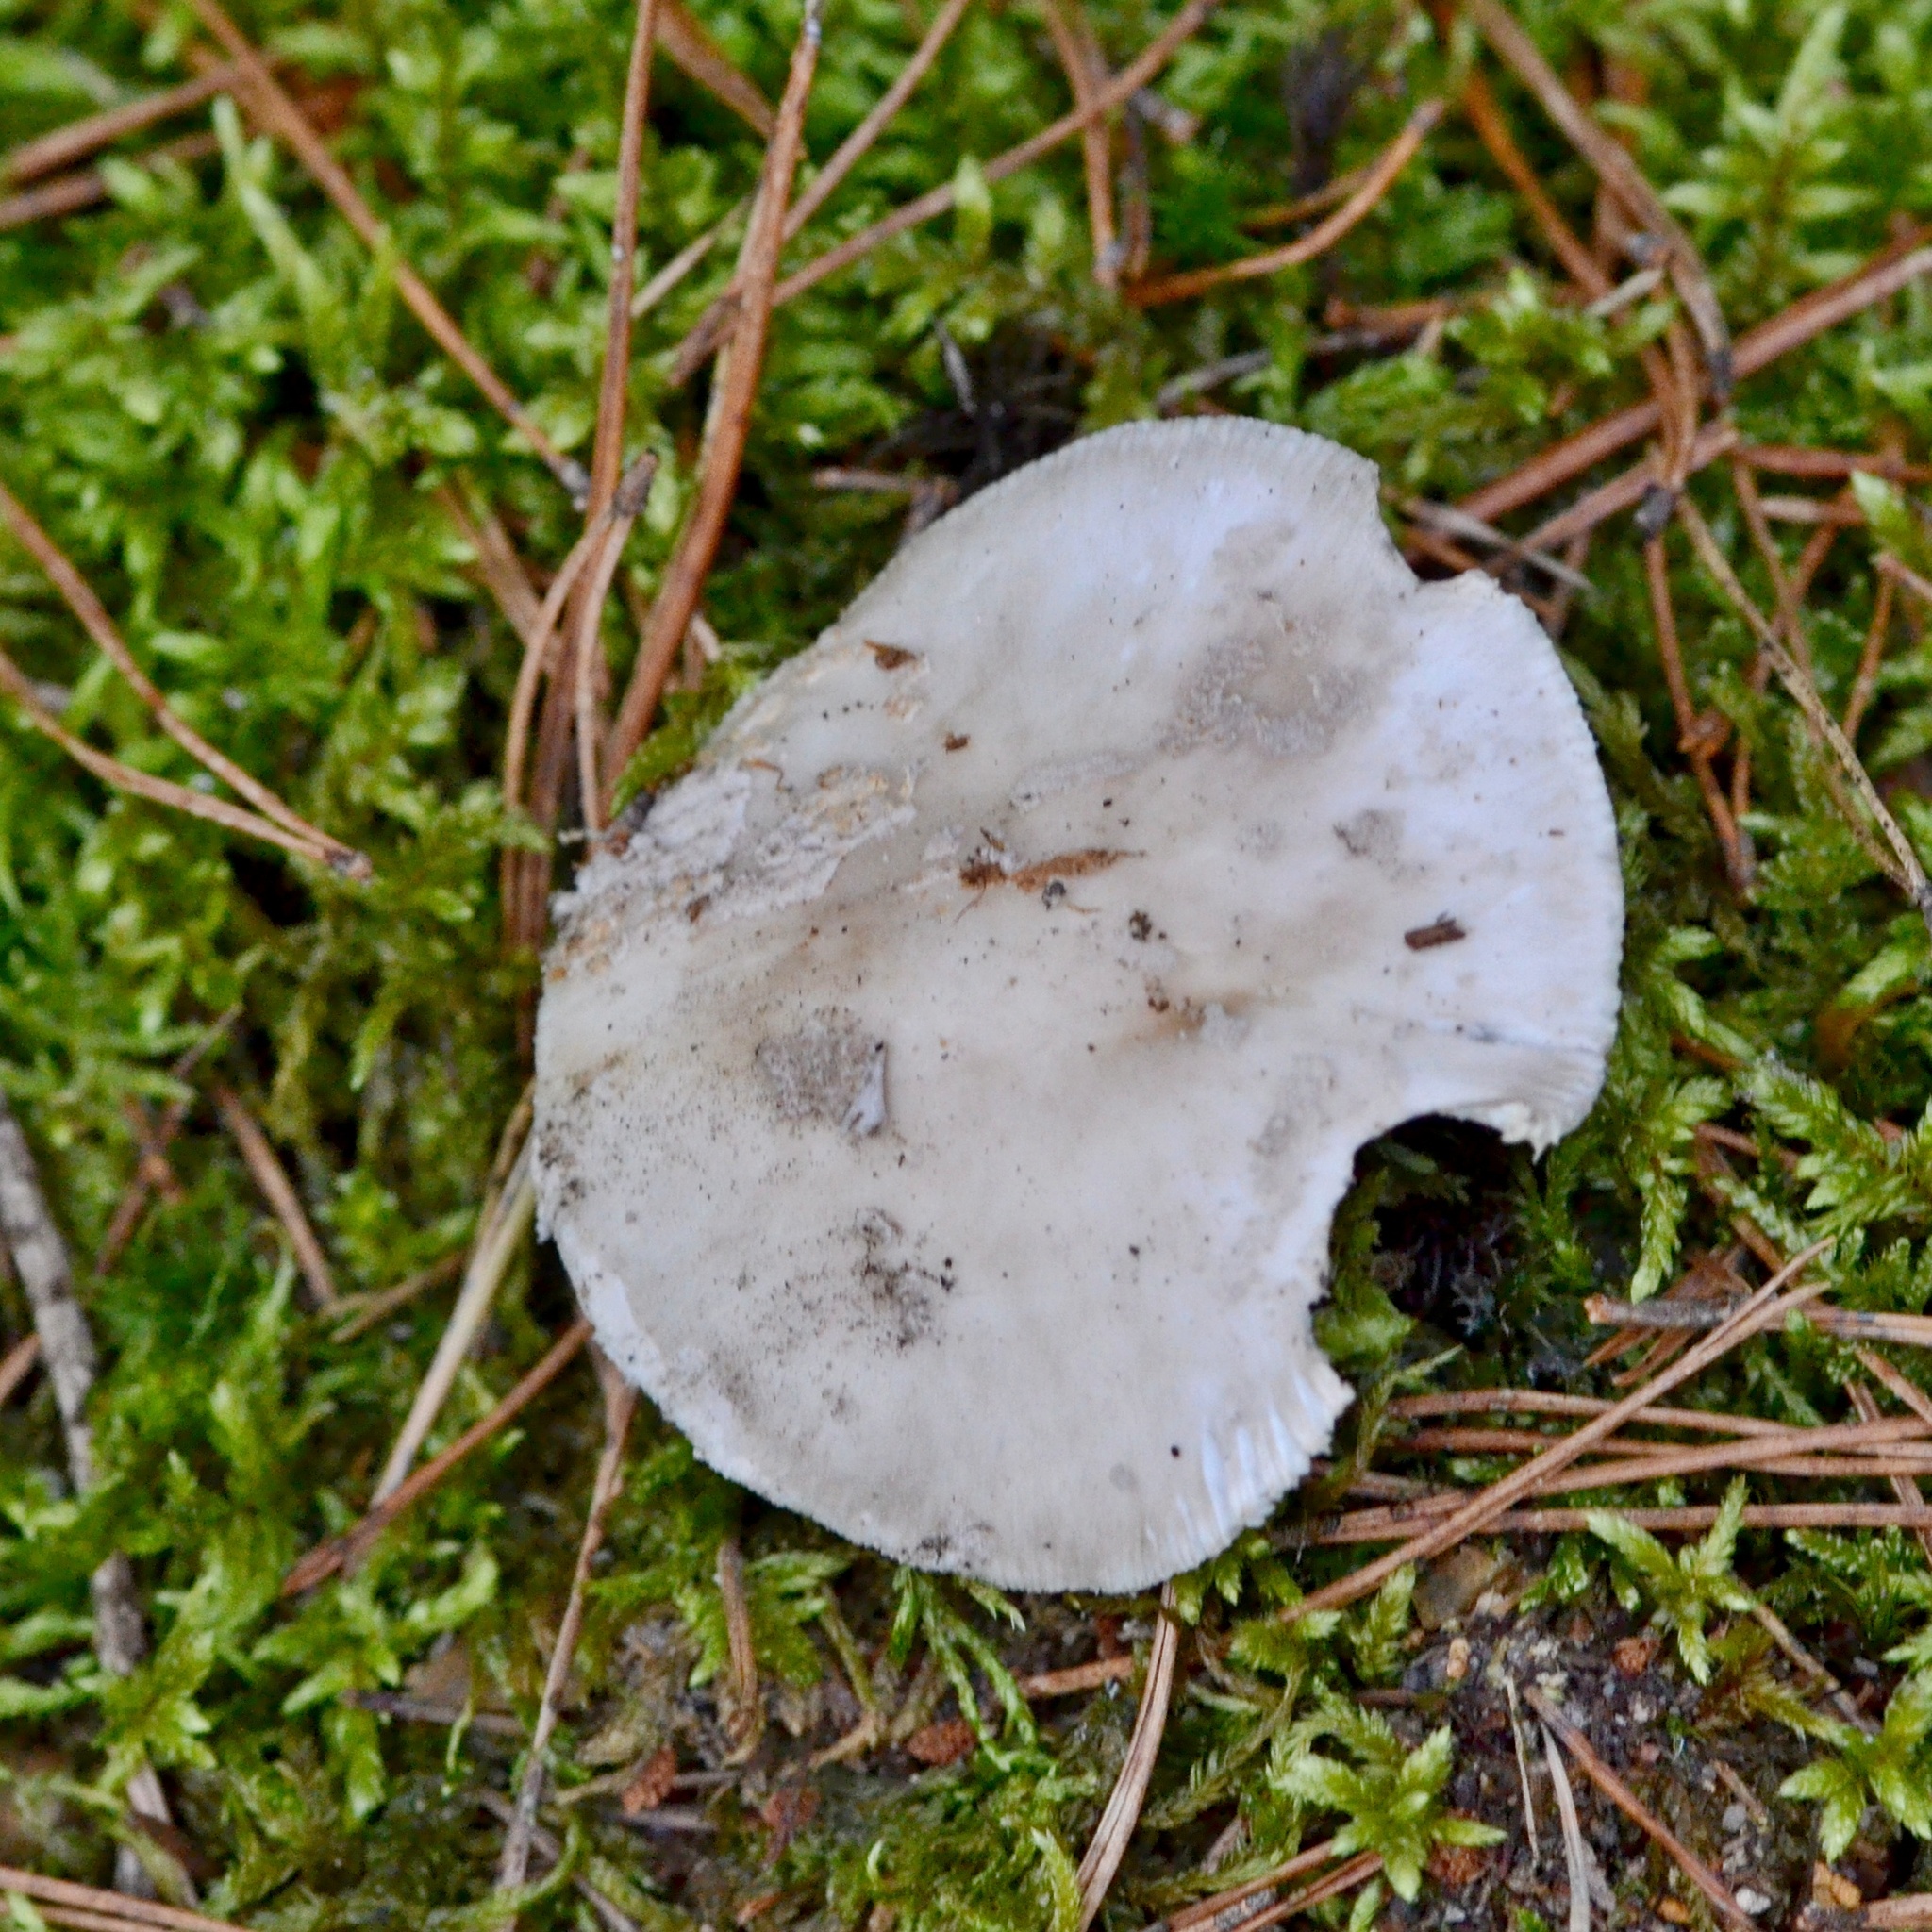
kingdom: Fungi
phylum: Basidiomycota
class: Agaricomycetes
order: Agaricales
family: Amanitaceae
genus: Amanita
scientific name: Amanita rubescens
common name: Blusher
